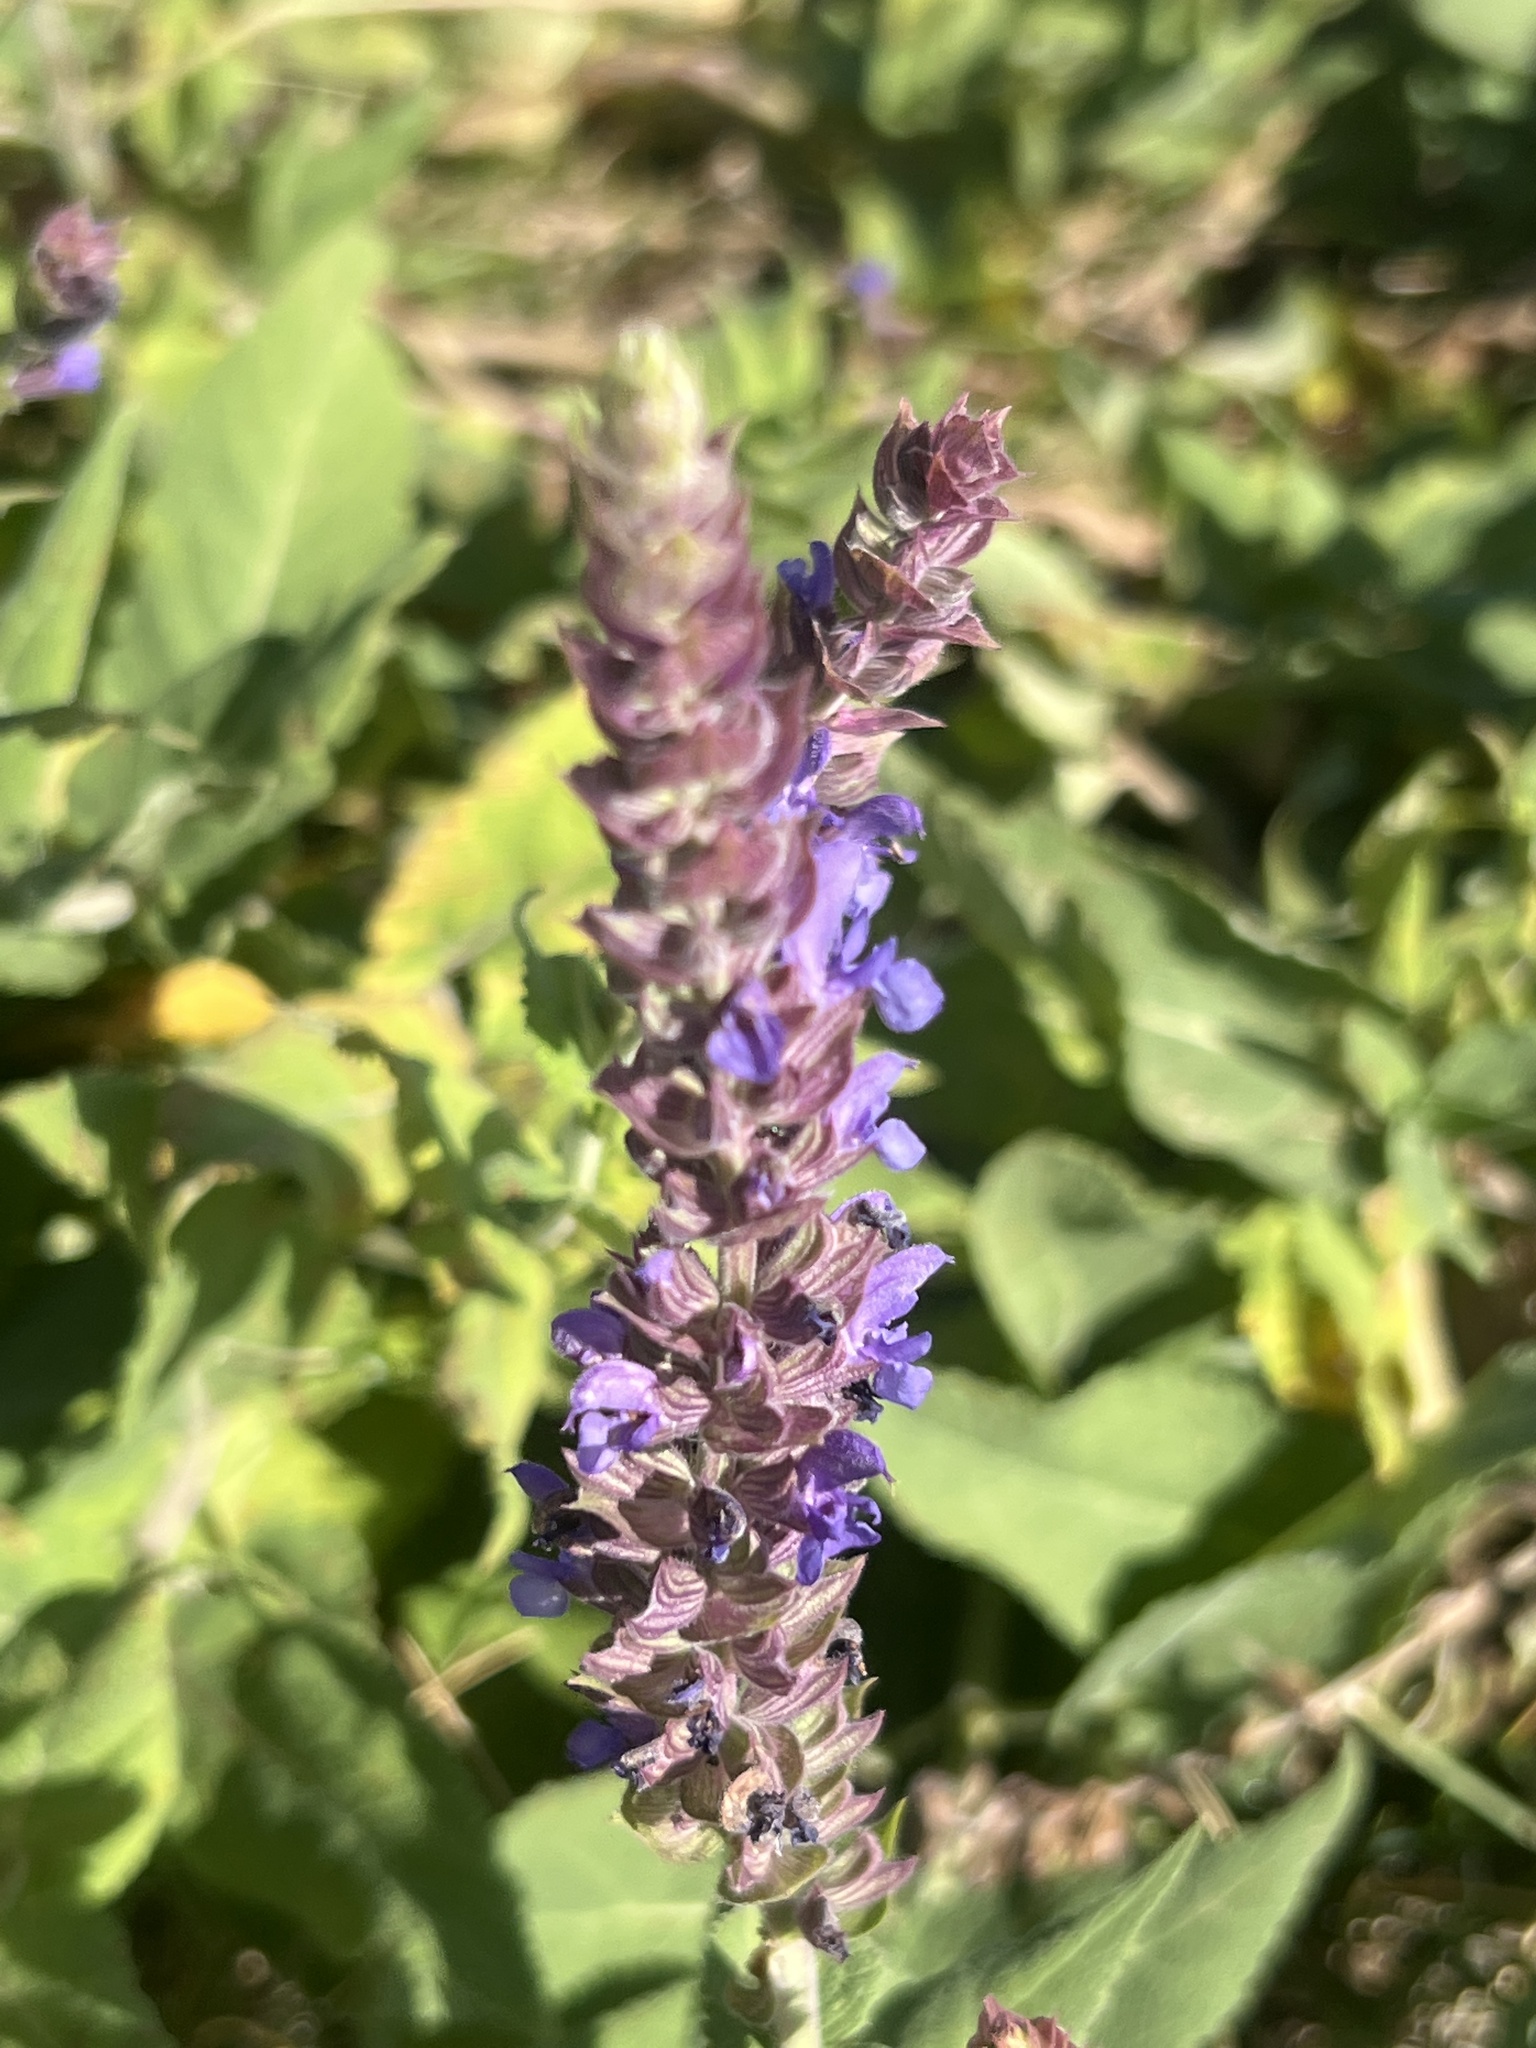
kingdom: Plantae
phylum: Tracheophyta
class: Magnoliopsida
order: Lamiales
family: Lamiaceae
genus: Salvia
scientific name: Salvia nemorosa
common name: Balkan clary
